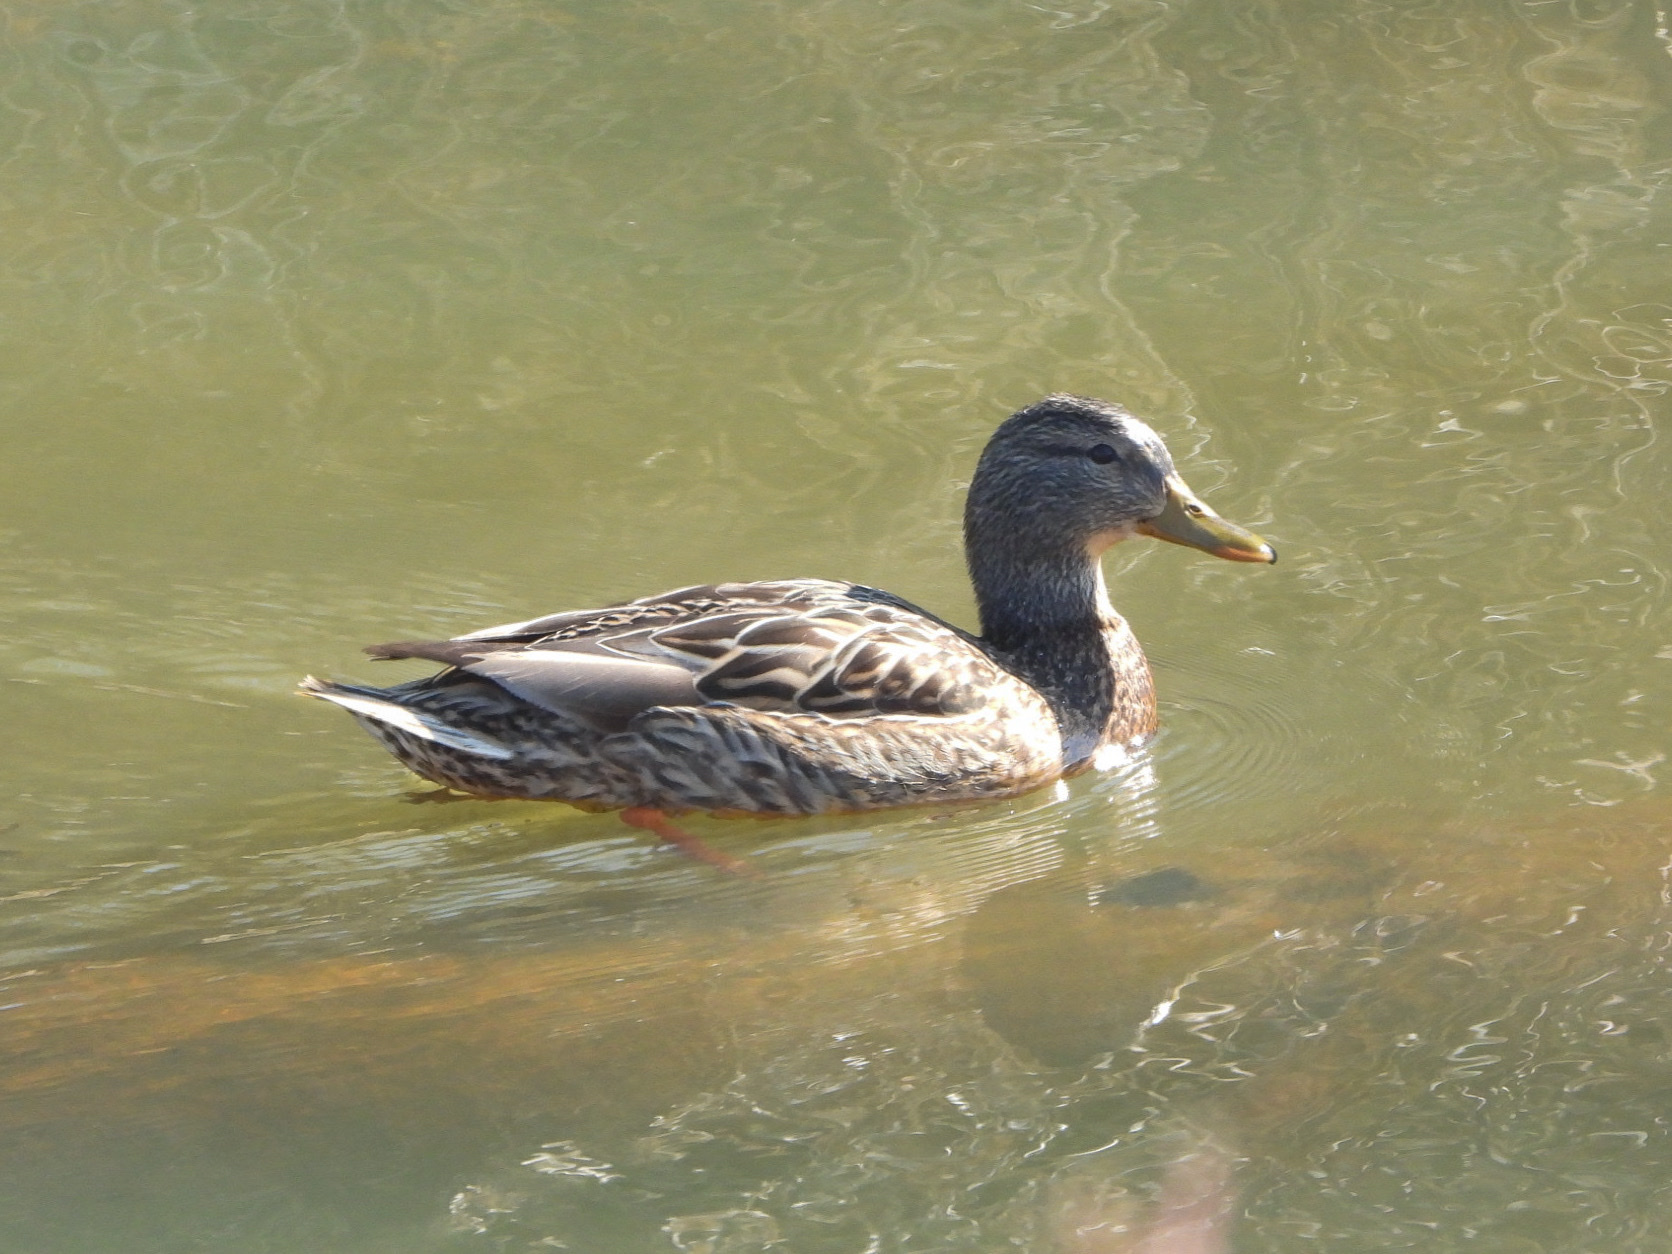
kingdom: Animalia
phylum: Chordata
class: Aves
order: Anseriformes
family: Anatidae
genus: Anas
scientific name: Anas platyrhynchos
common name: Mallard
